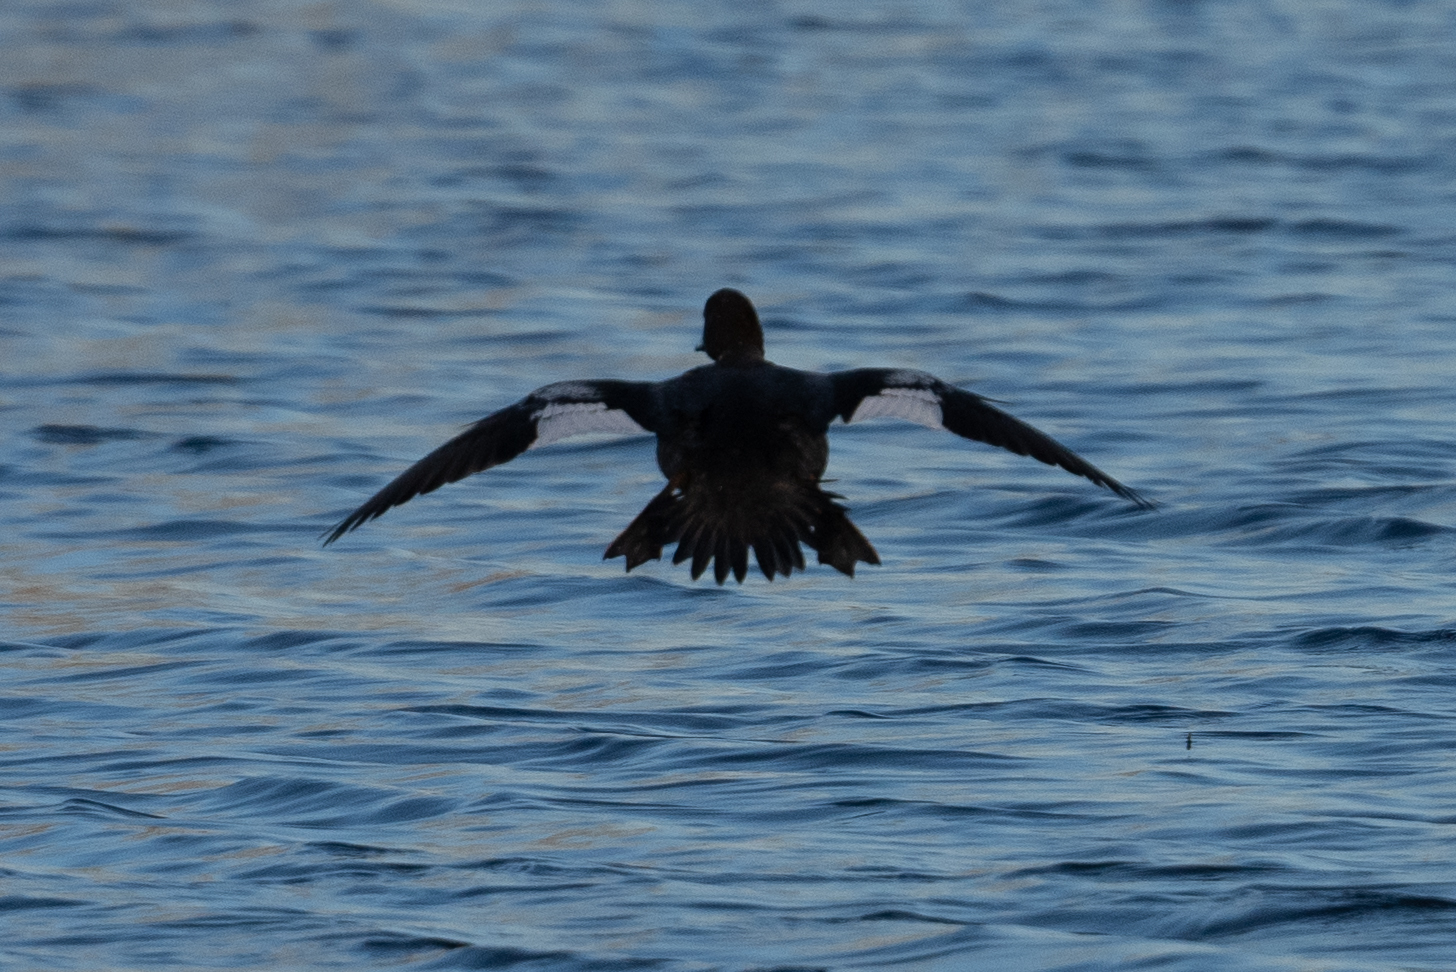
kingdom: Animalia
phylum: Chordata
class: Aves
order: Anseriformes
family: Anatidae
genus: Bucephala
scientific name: Bucephala clangula
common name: Common goldeneye
